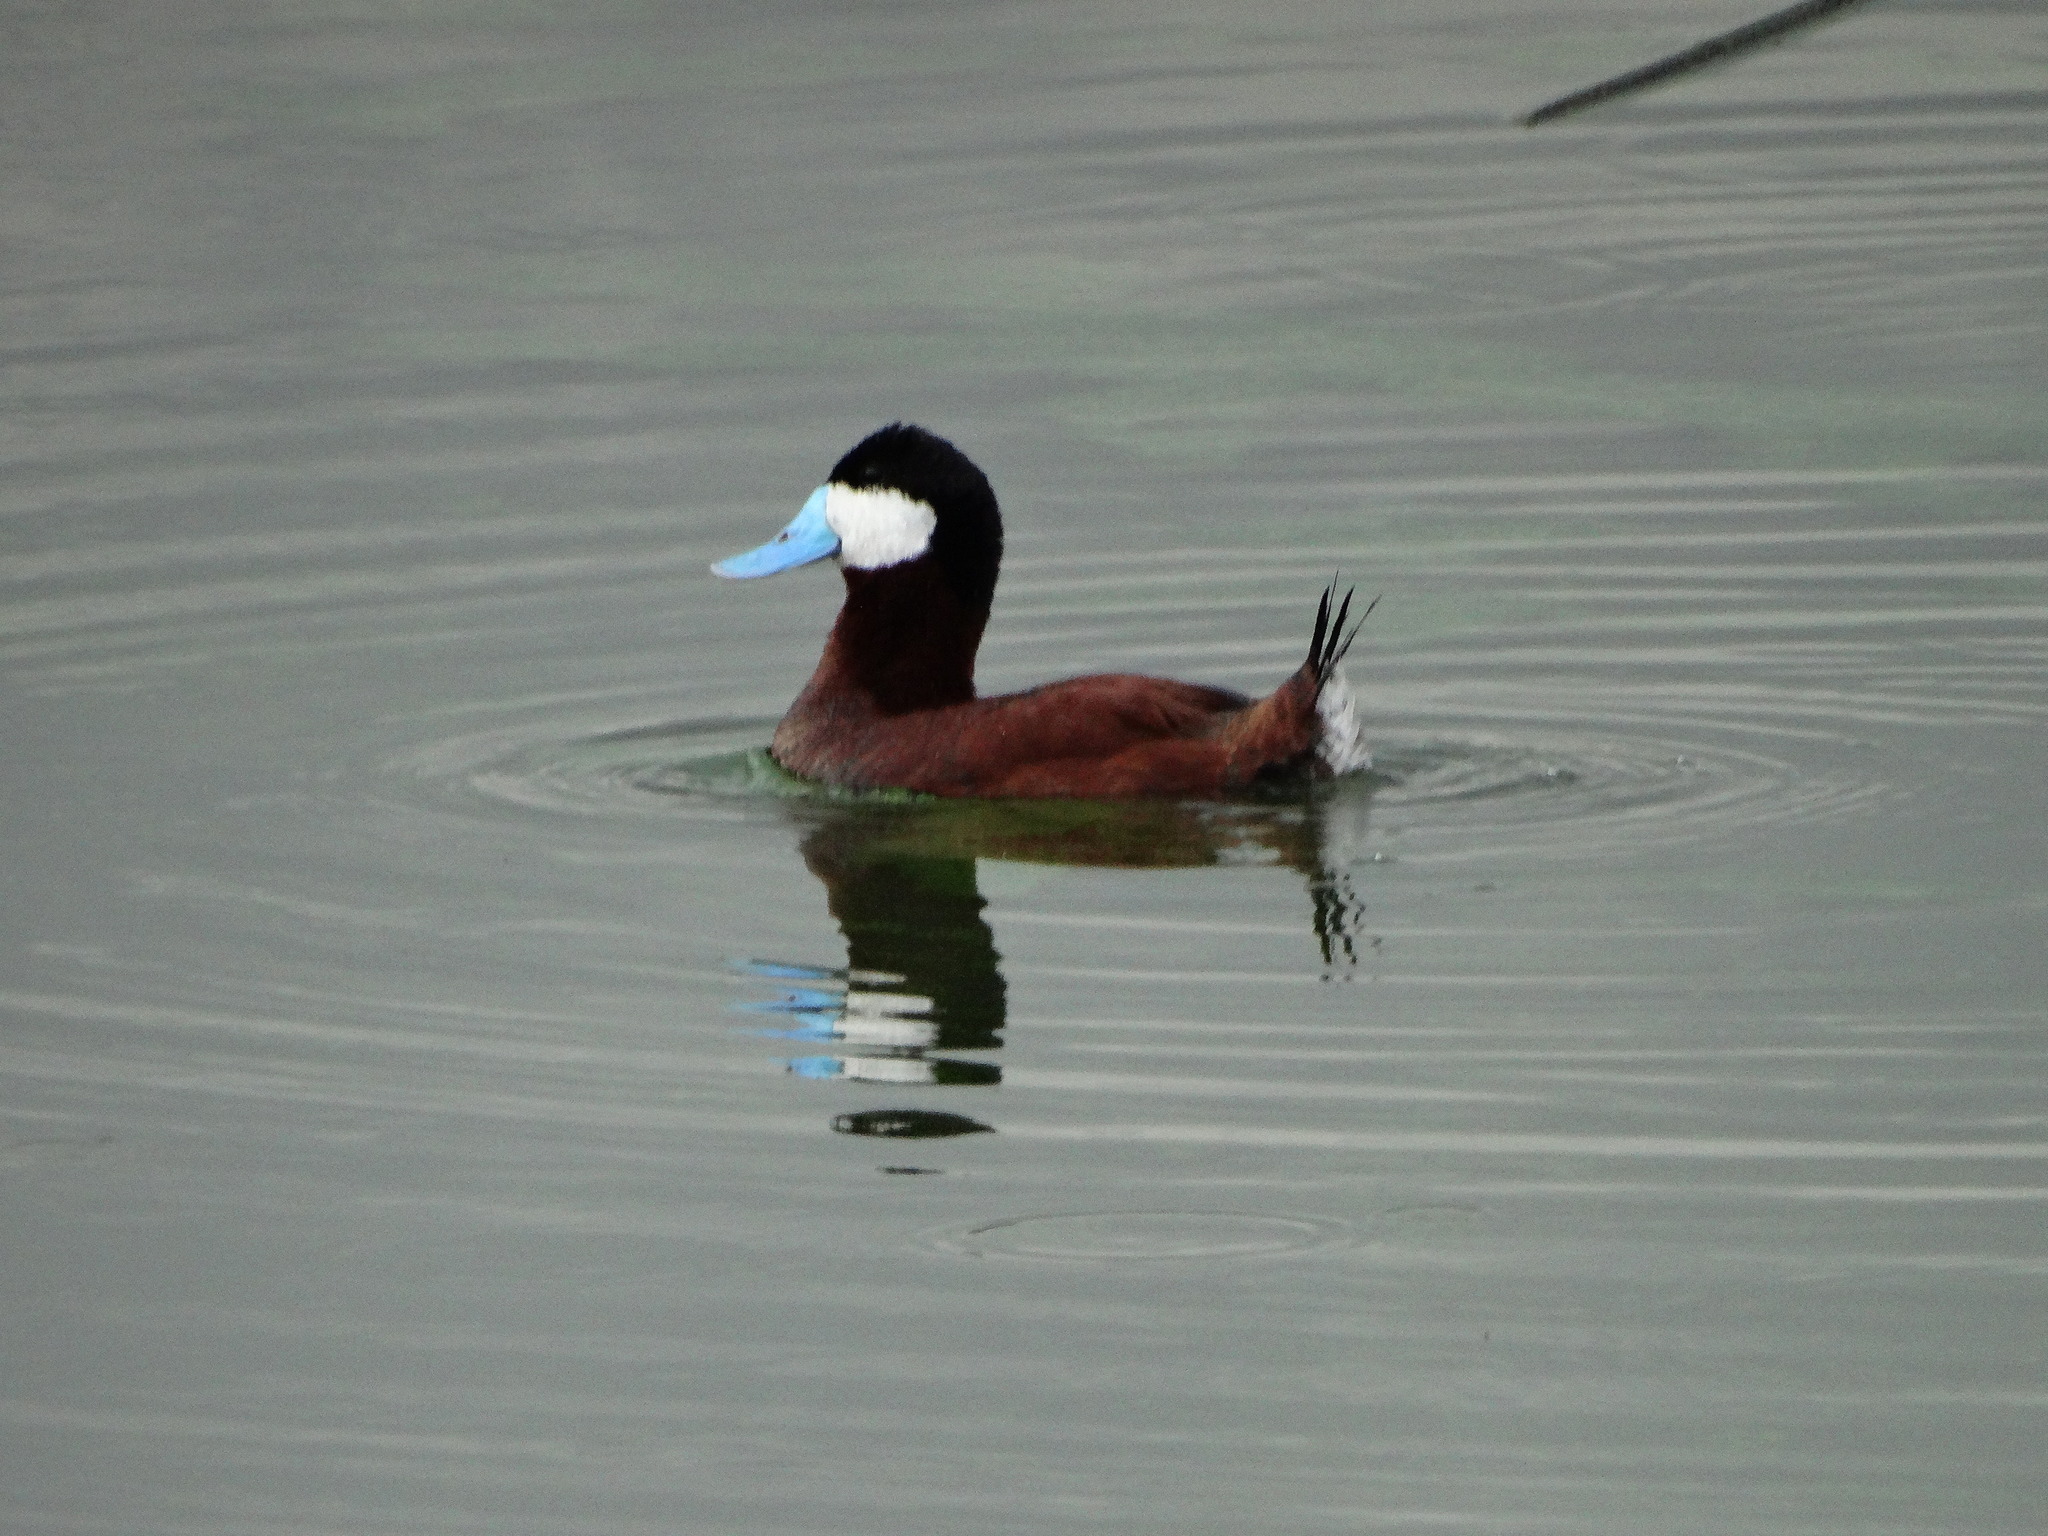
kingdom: Animalia
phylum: Chordata
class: Aves
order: Anseriformes
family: Anatidae
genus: Oxyura
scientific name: Oxyura jamaicensis
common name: Ruddy duck
